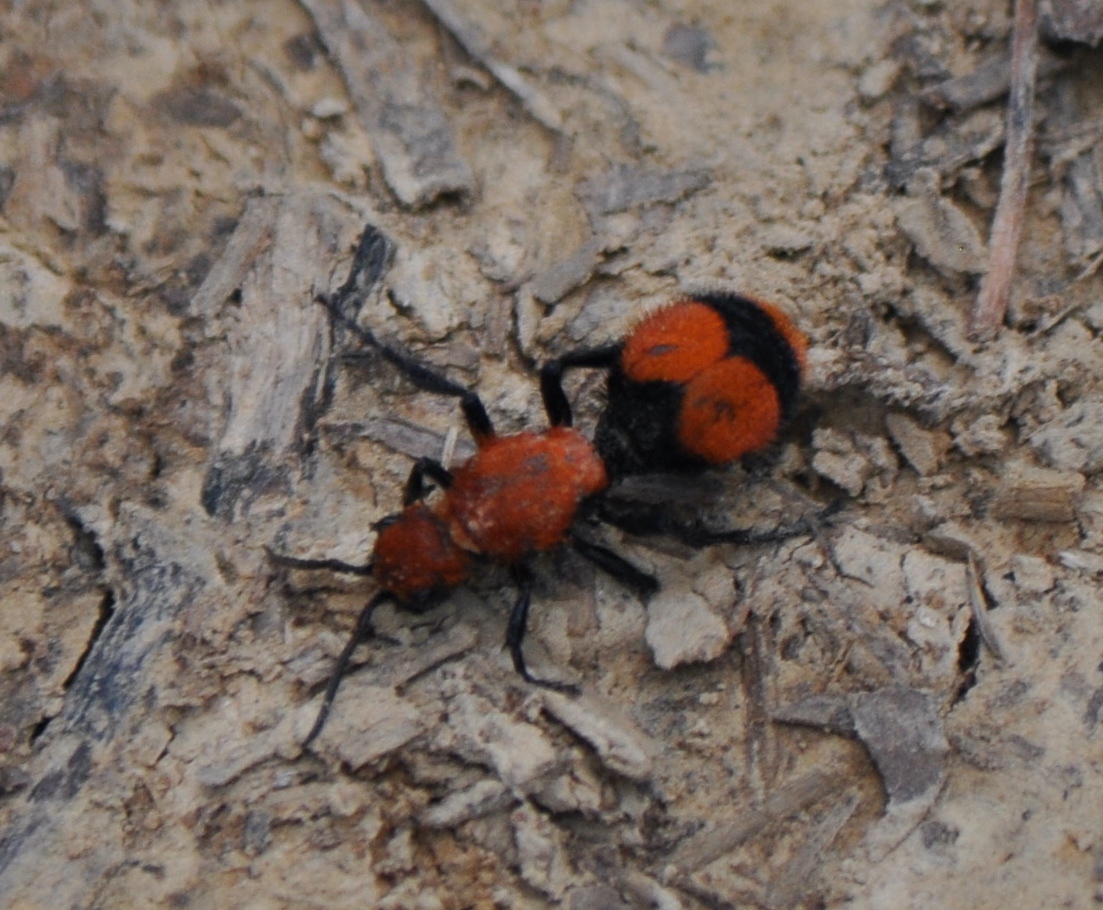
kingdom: Animalia
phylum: Arthropoda
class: Insecta
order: Hymenoptera
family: Mutillidae
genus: Dasymutilla
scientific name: Dasymutilla occidentalis
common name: Common eastern velvet ant
